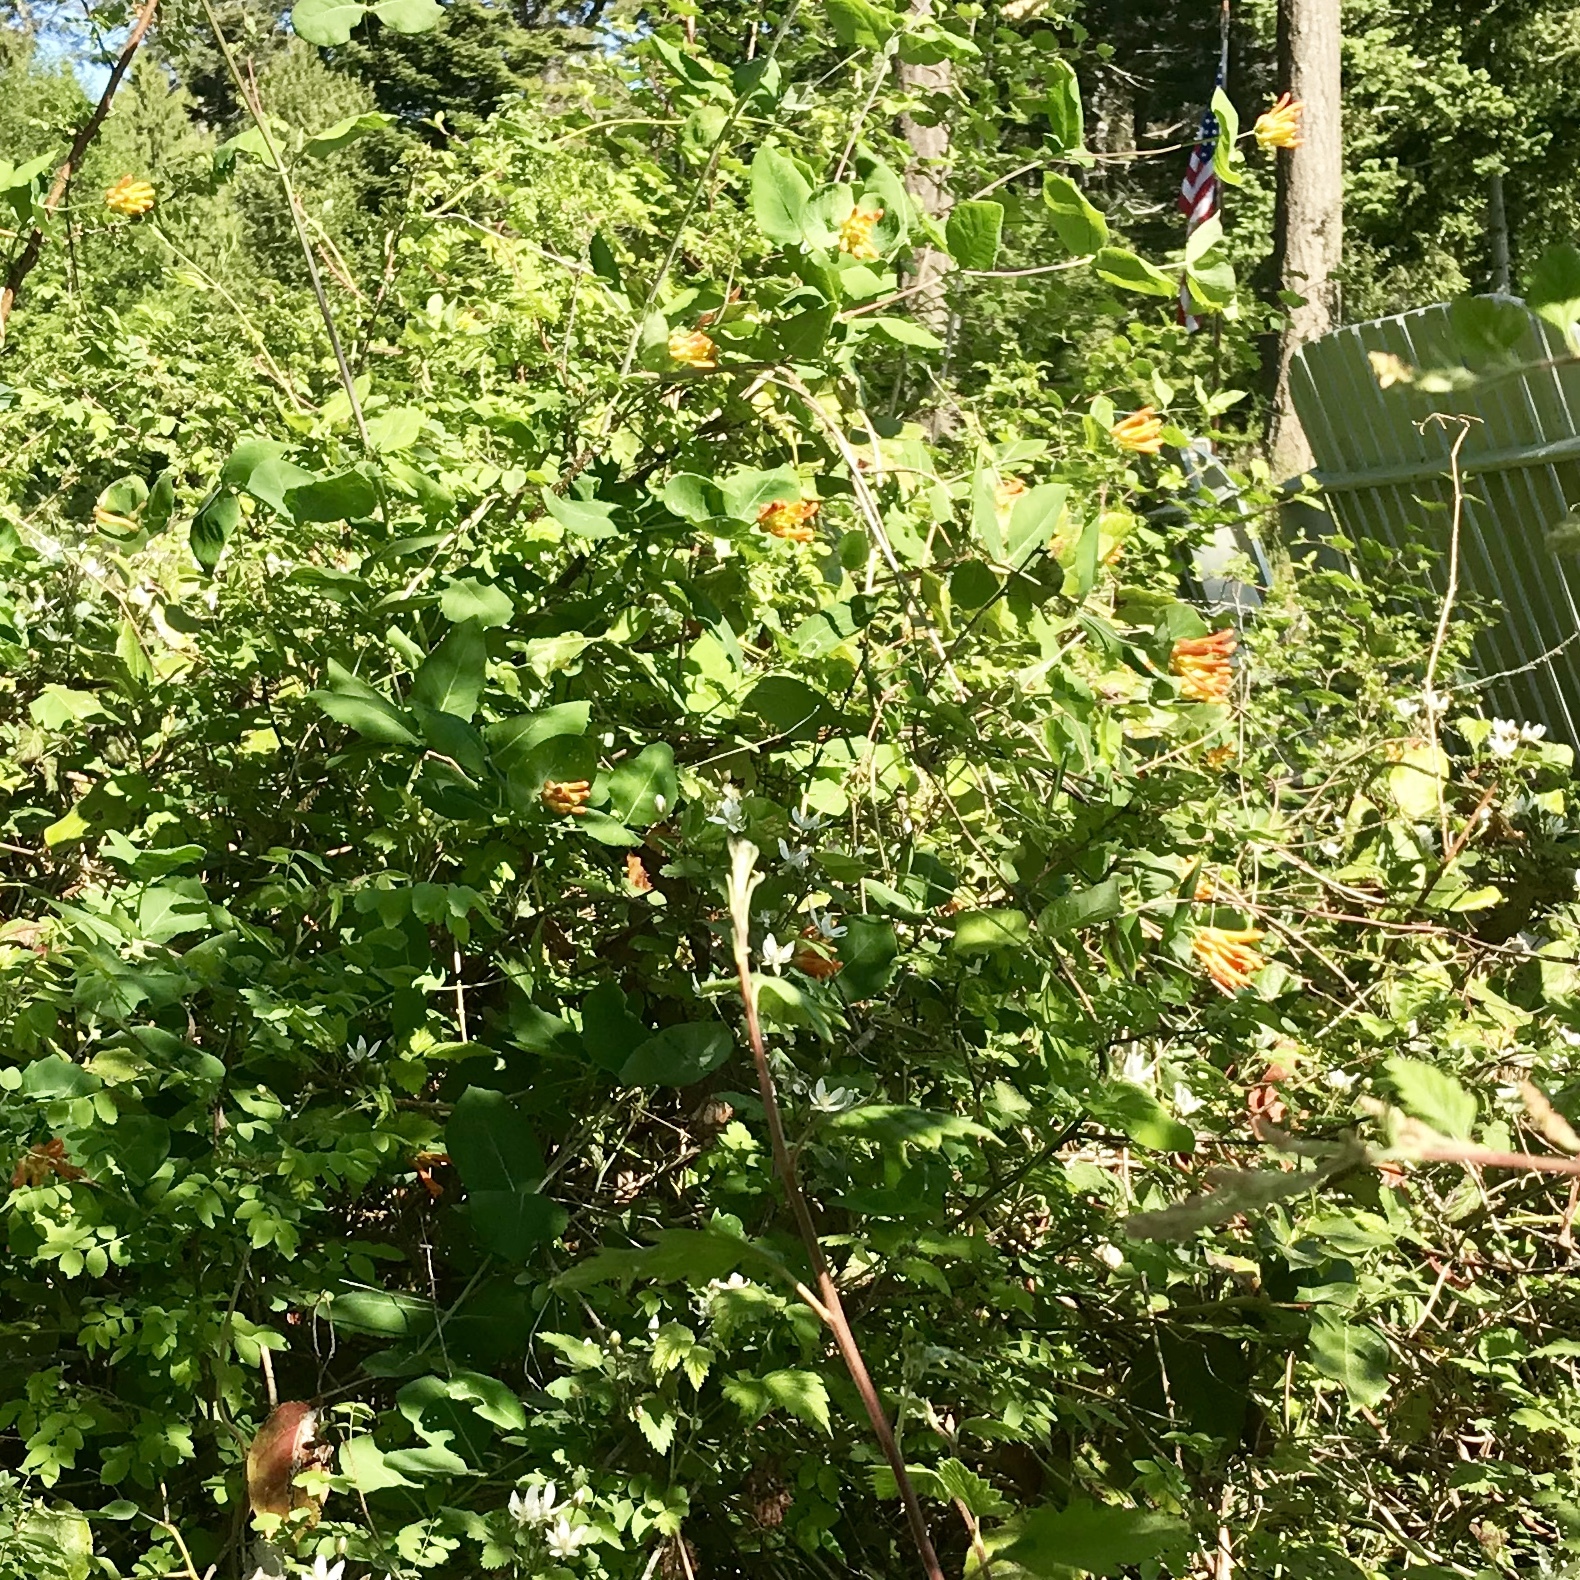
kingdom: Plantae
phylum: Tracheophyta
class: Magnoliopsida
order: Dipsacales
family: Caprifoliaceae
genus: Lonicera
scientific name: Lonicera ciliosa
